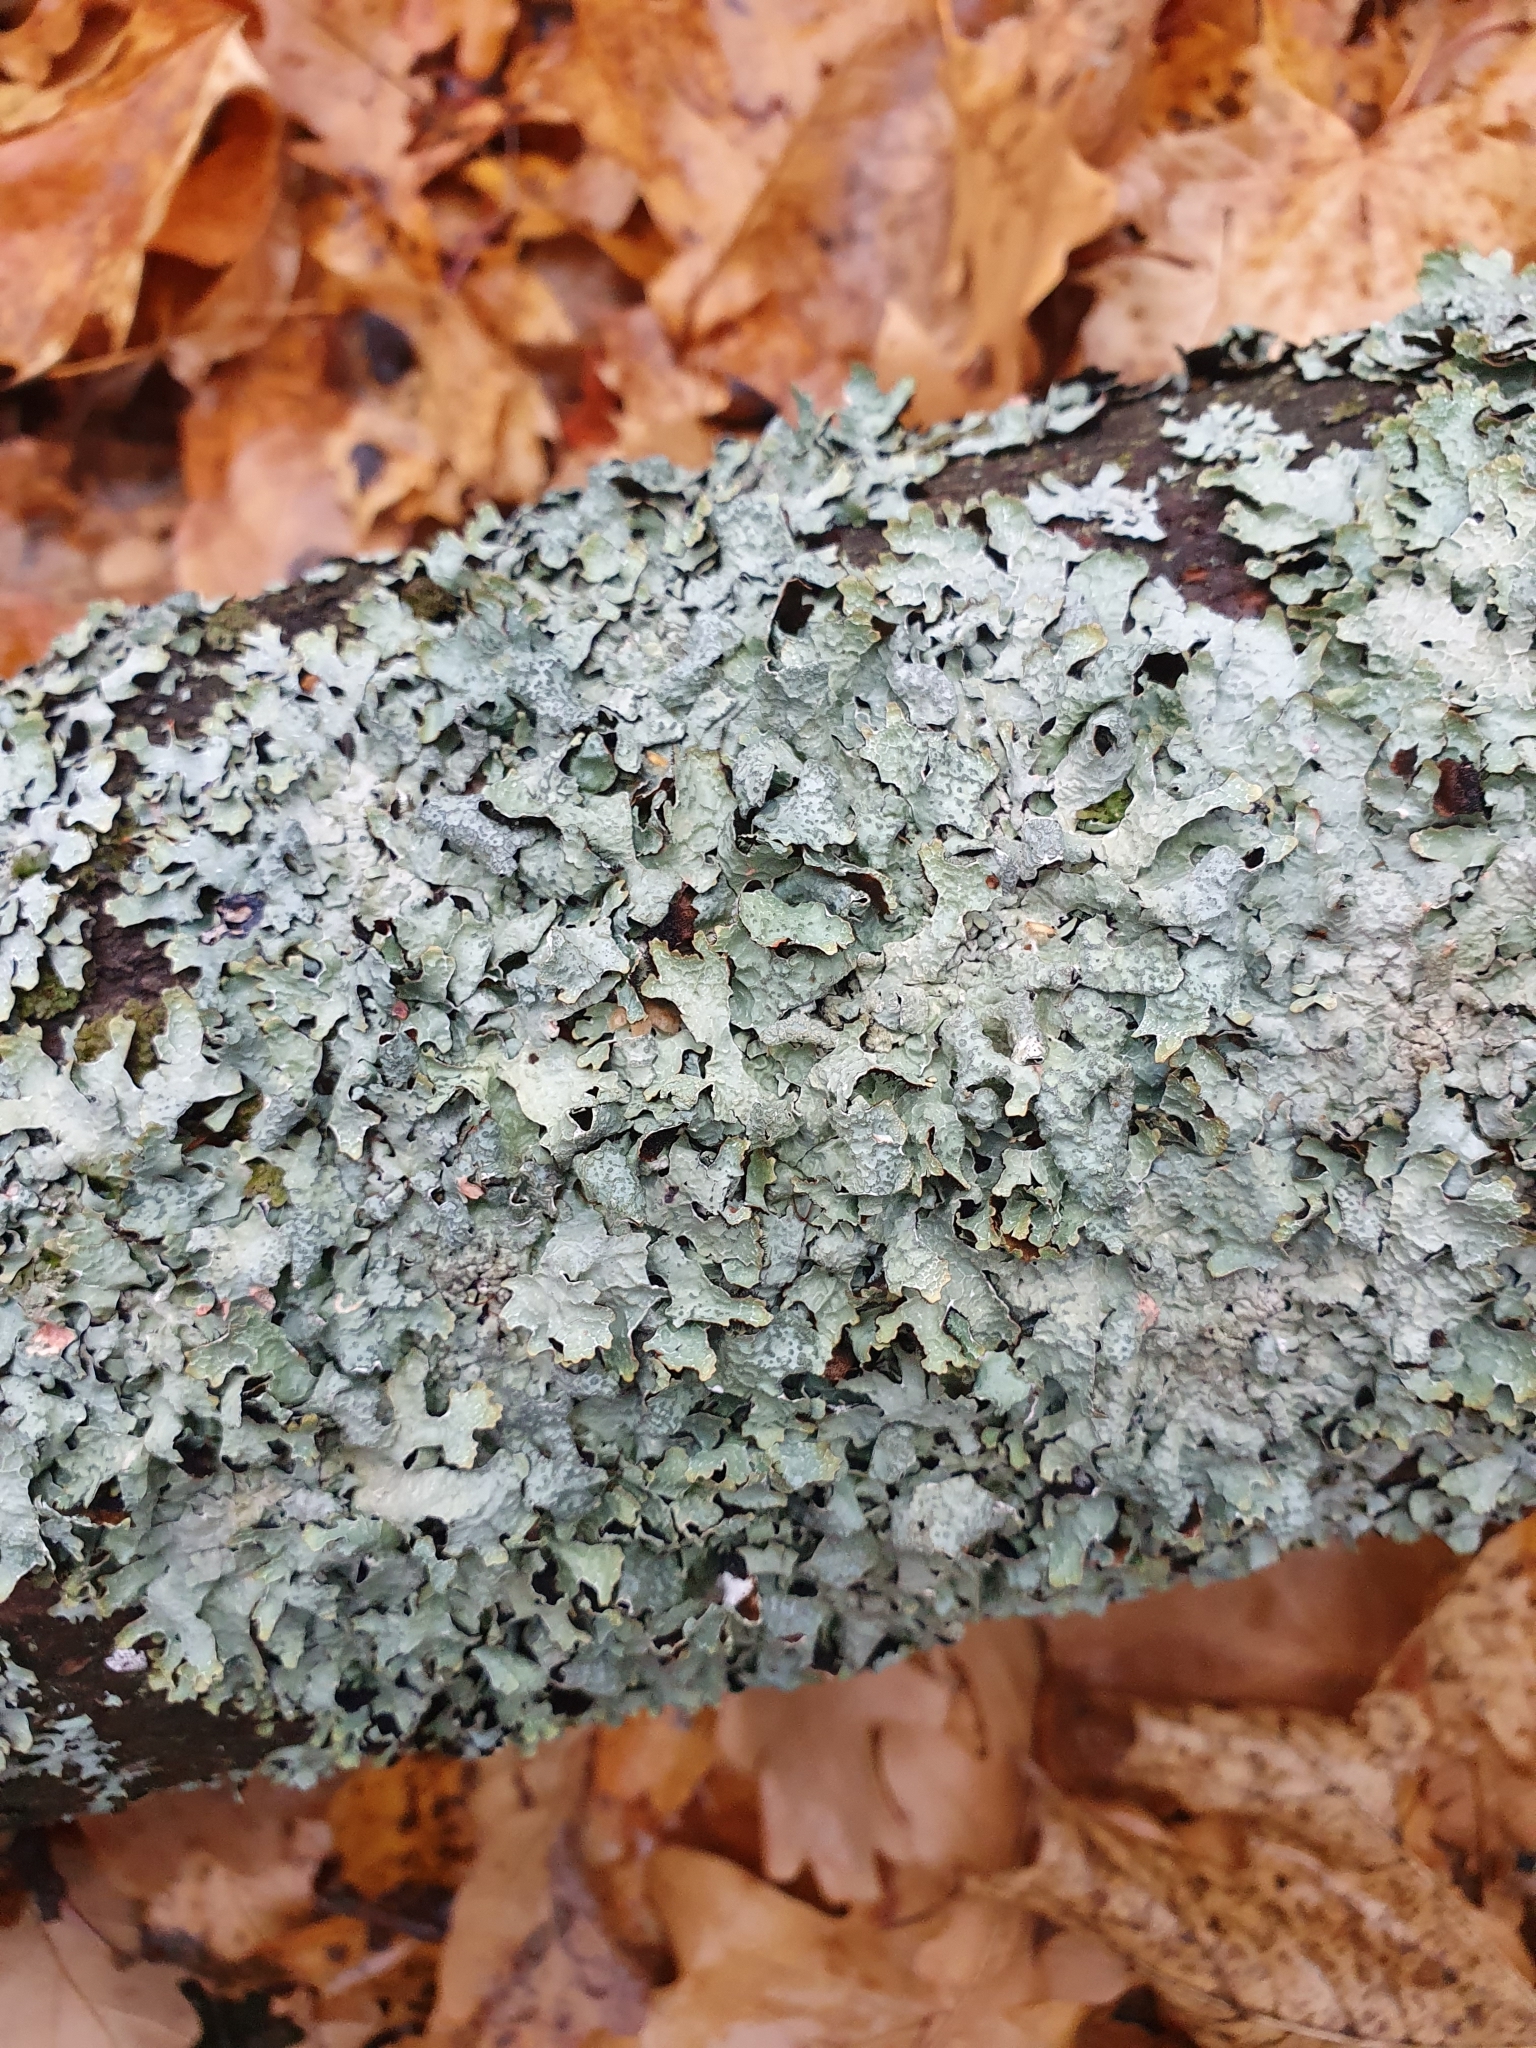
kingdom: Fungi
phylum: Ascomycota
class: Lecanoromycetes
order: Lecanorales
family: Parmeliaceae
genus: Parmelia
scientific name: Parmelia sulcata
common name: Netted shield lichen
